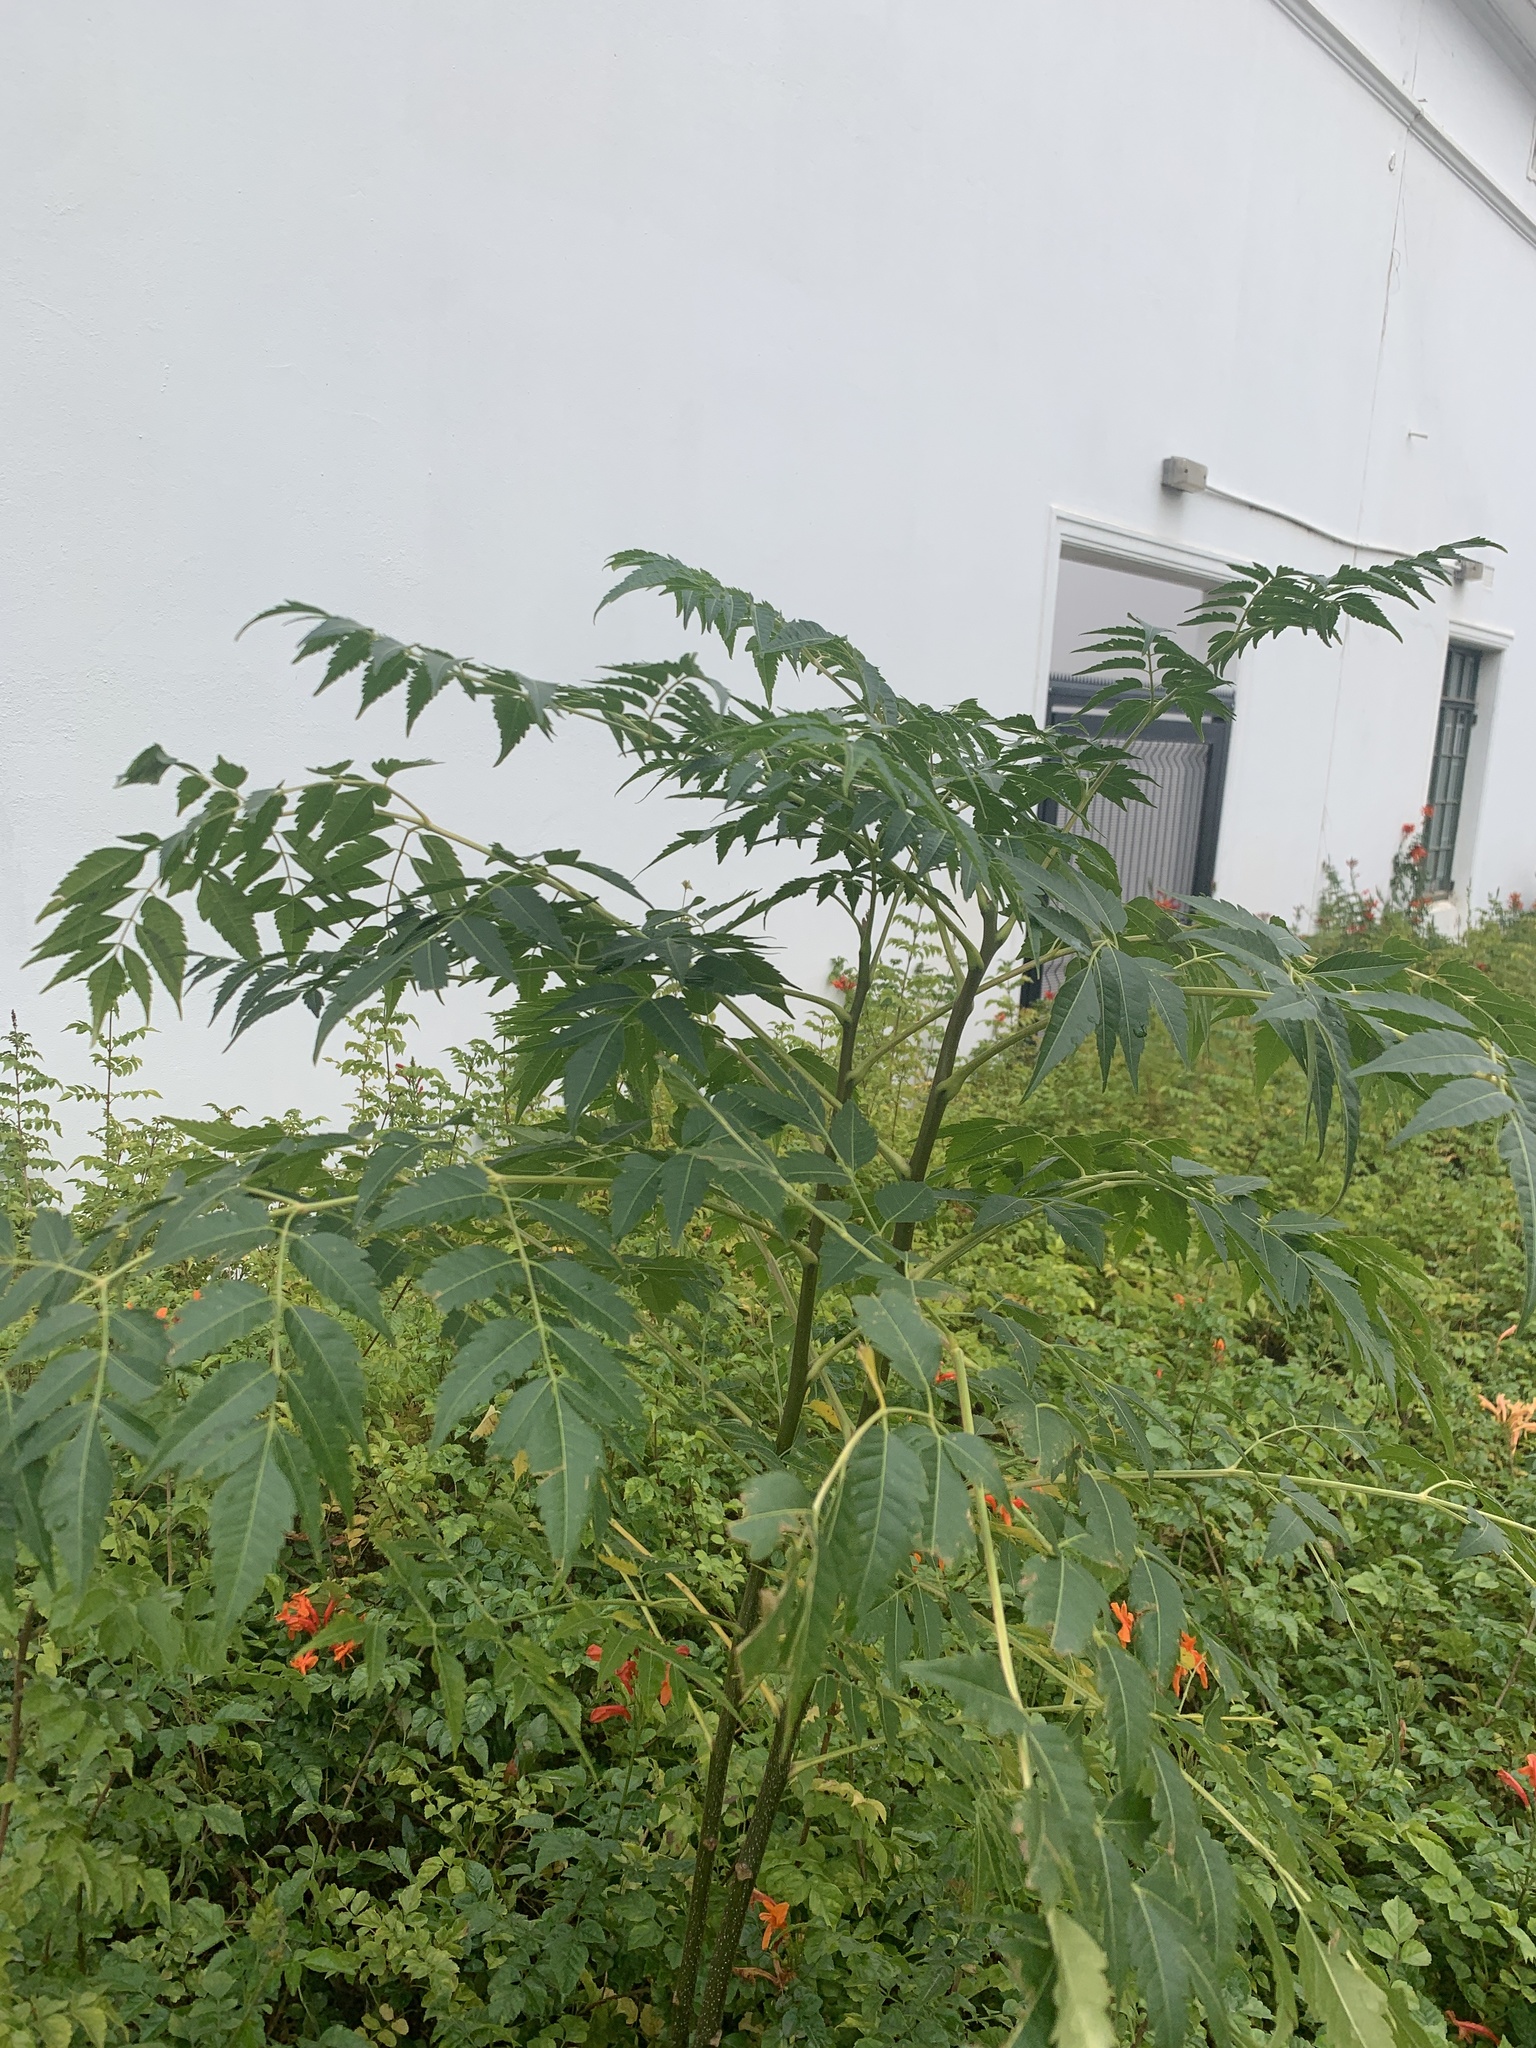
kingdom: Plantae
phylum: Tracheophyta
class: Magnoliopsida
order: Sapindales
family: Meliaceae
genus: Melia
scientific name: Melia azedarach
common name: Chinaberrytree
